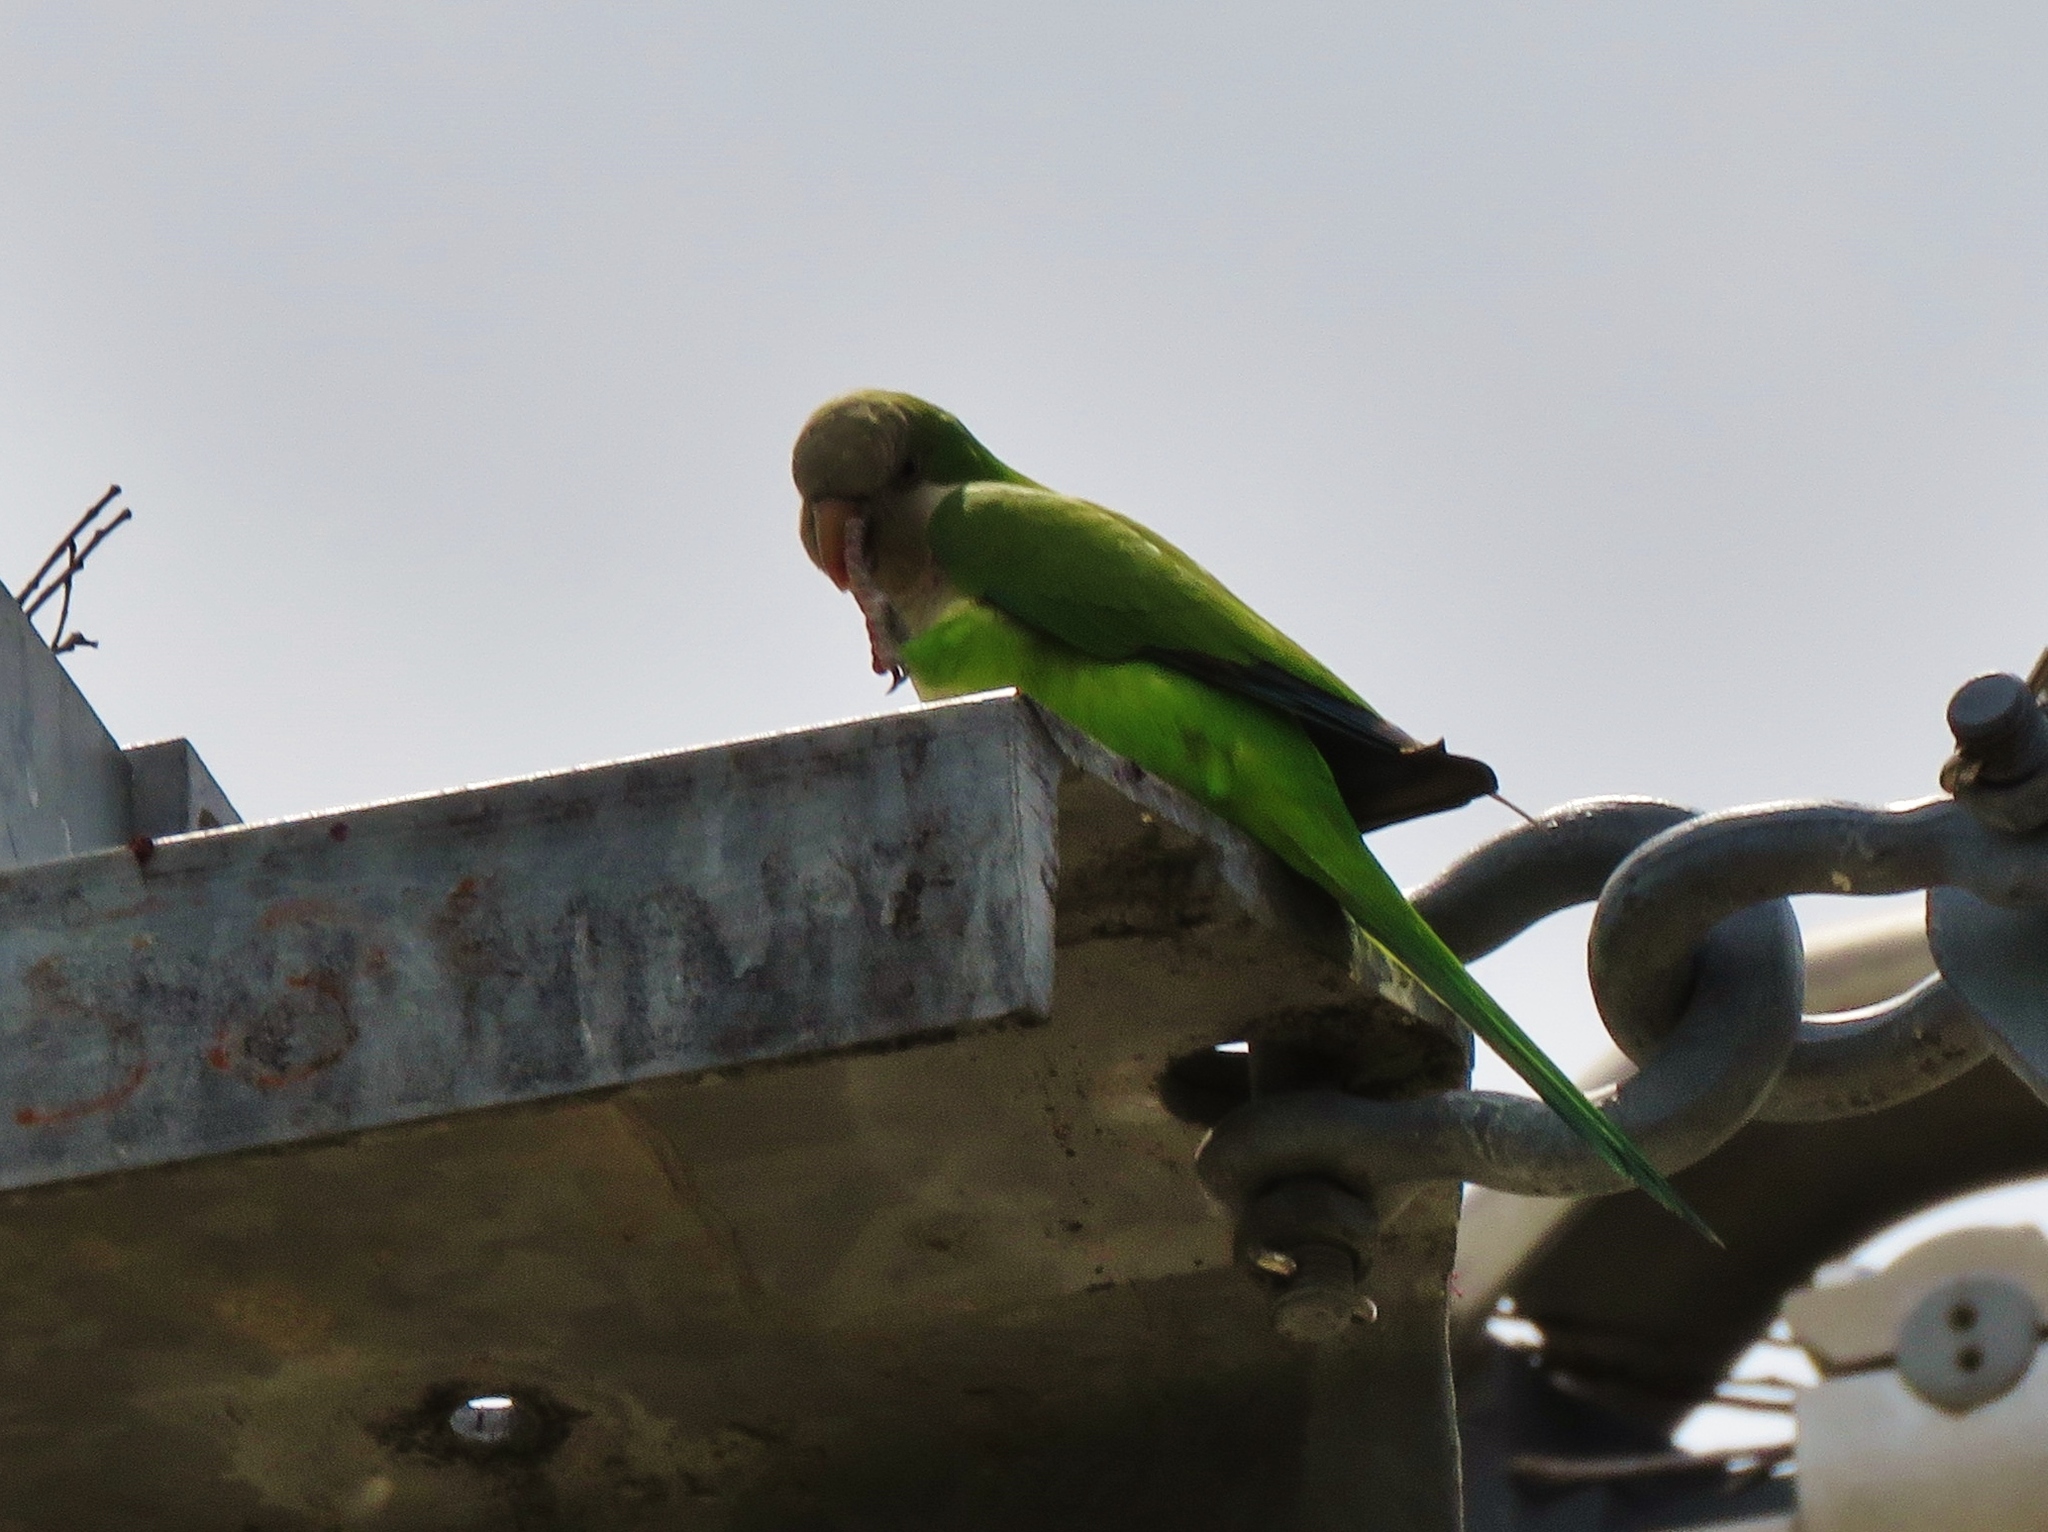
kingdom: Animalia
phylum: Chordata
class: Aves
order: Psittaciformes
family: Psittacidae
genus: Myiopsitta
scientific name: Myiopsitta monachus
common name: Monk parakeet
